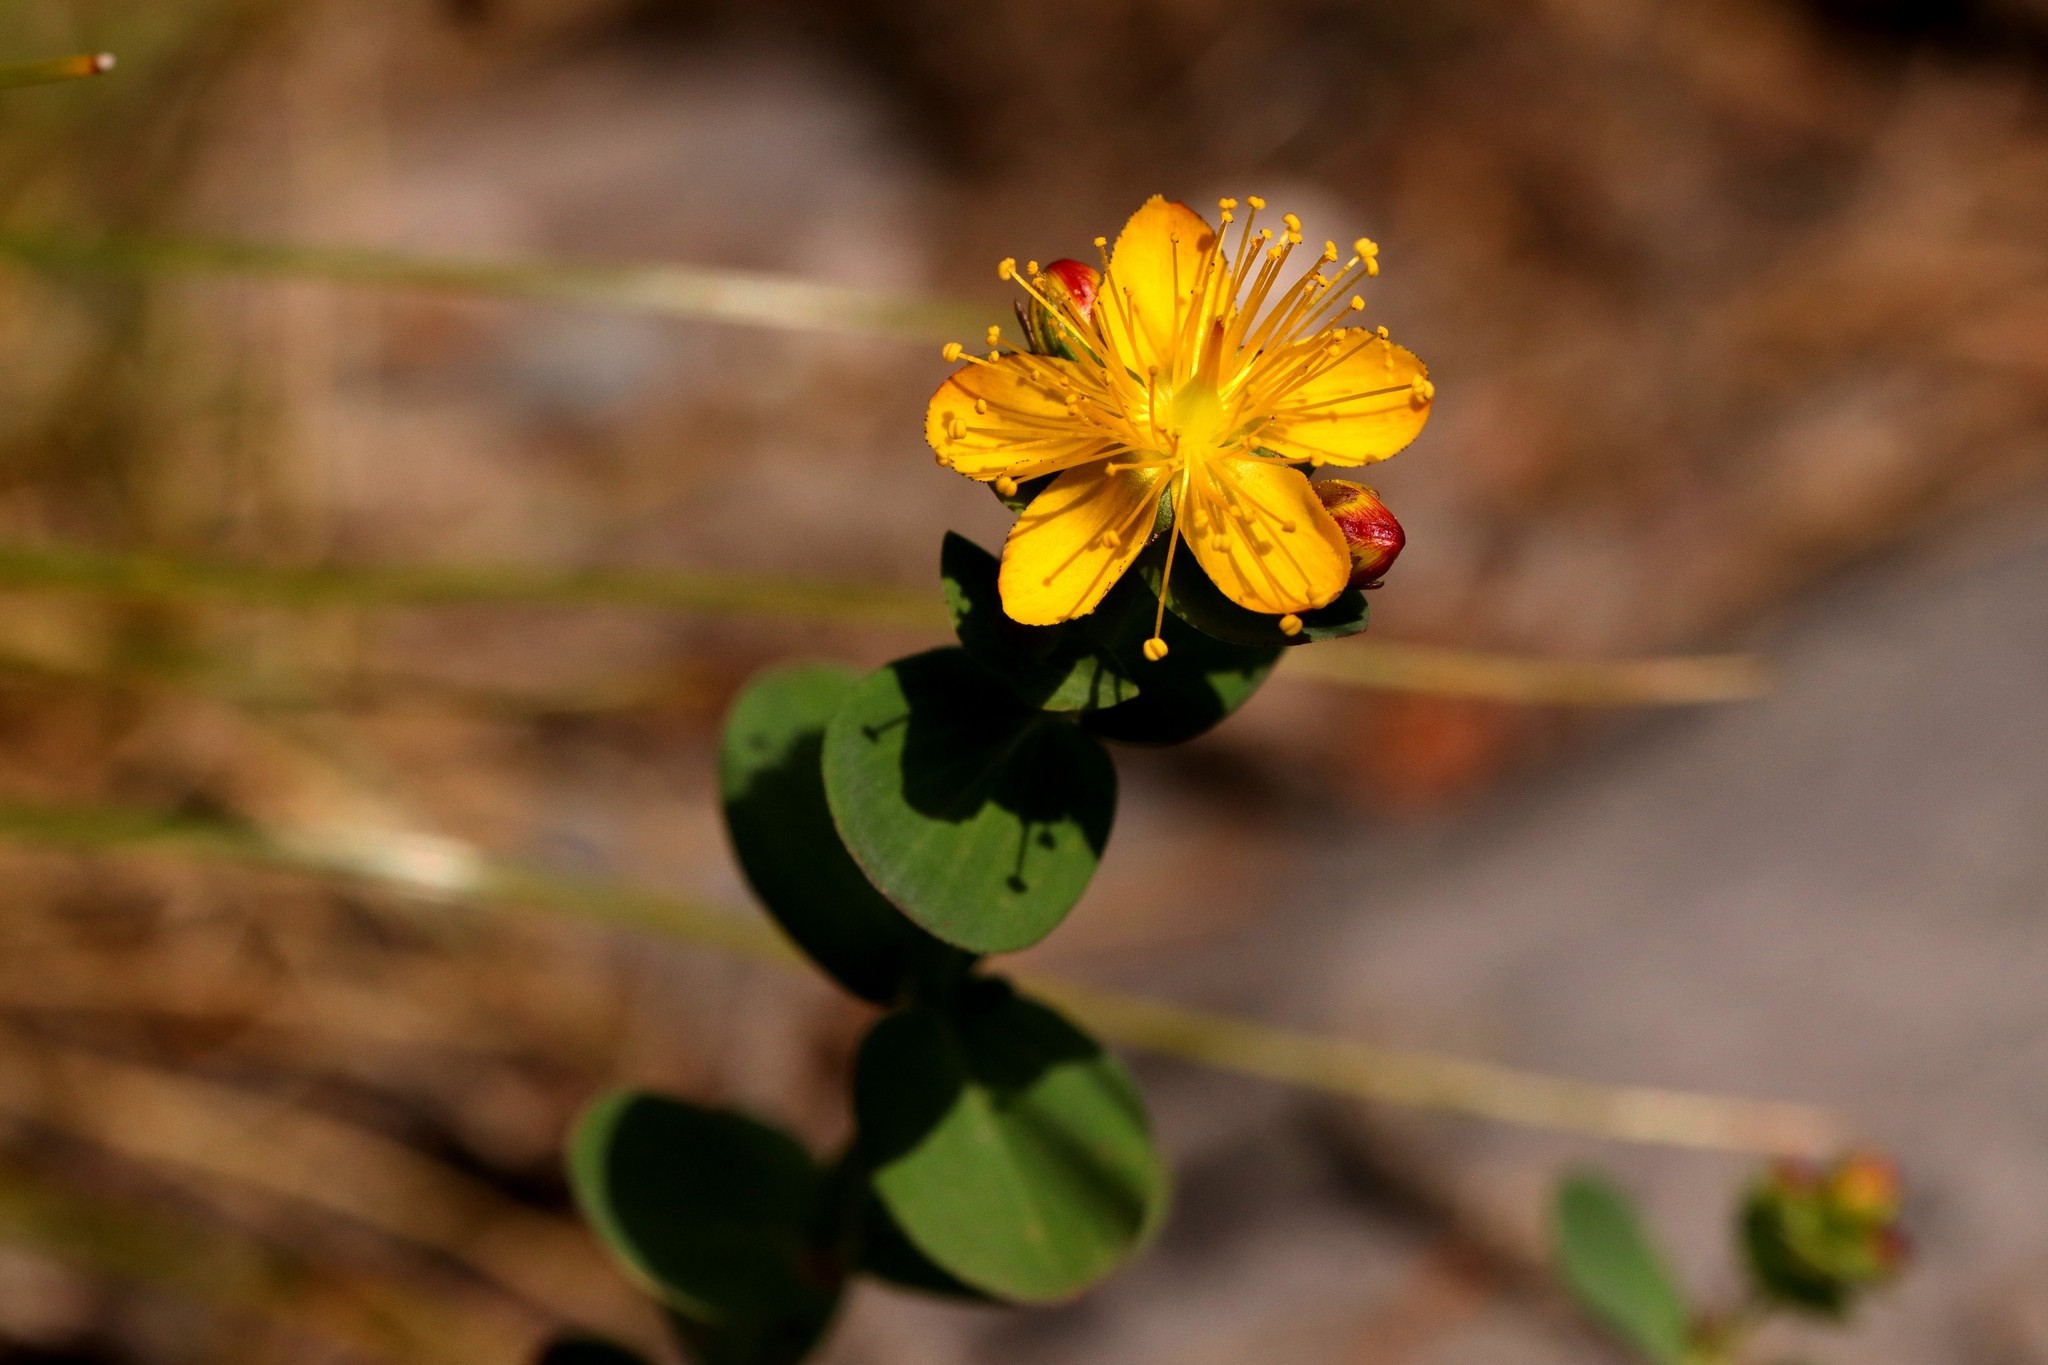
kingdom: Plantae
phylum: Tracheophyta
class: Magnoliopsida
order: Malpighiales
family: Hypericaceae
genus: Hypericum
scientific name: Hypericum scouleri
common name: Scouler's st. john's-wort
